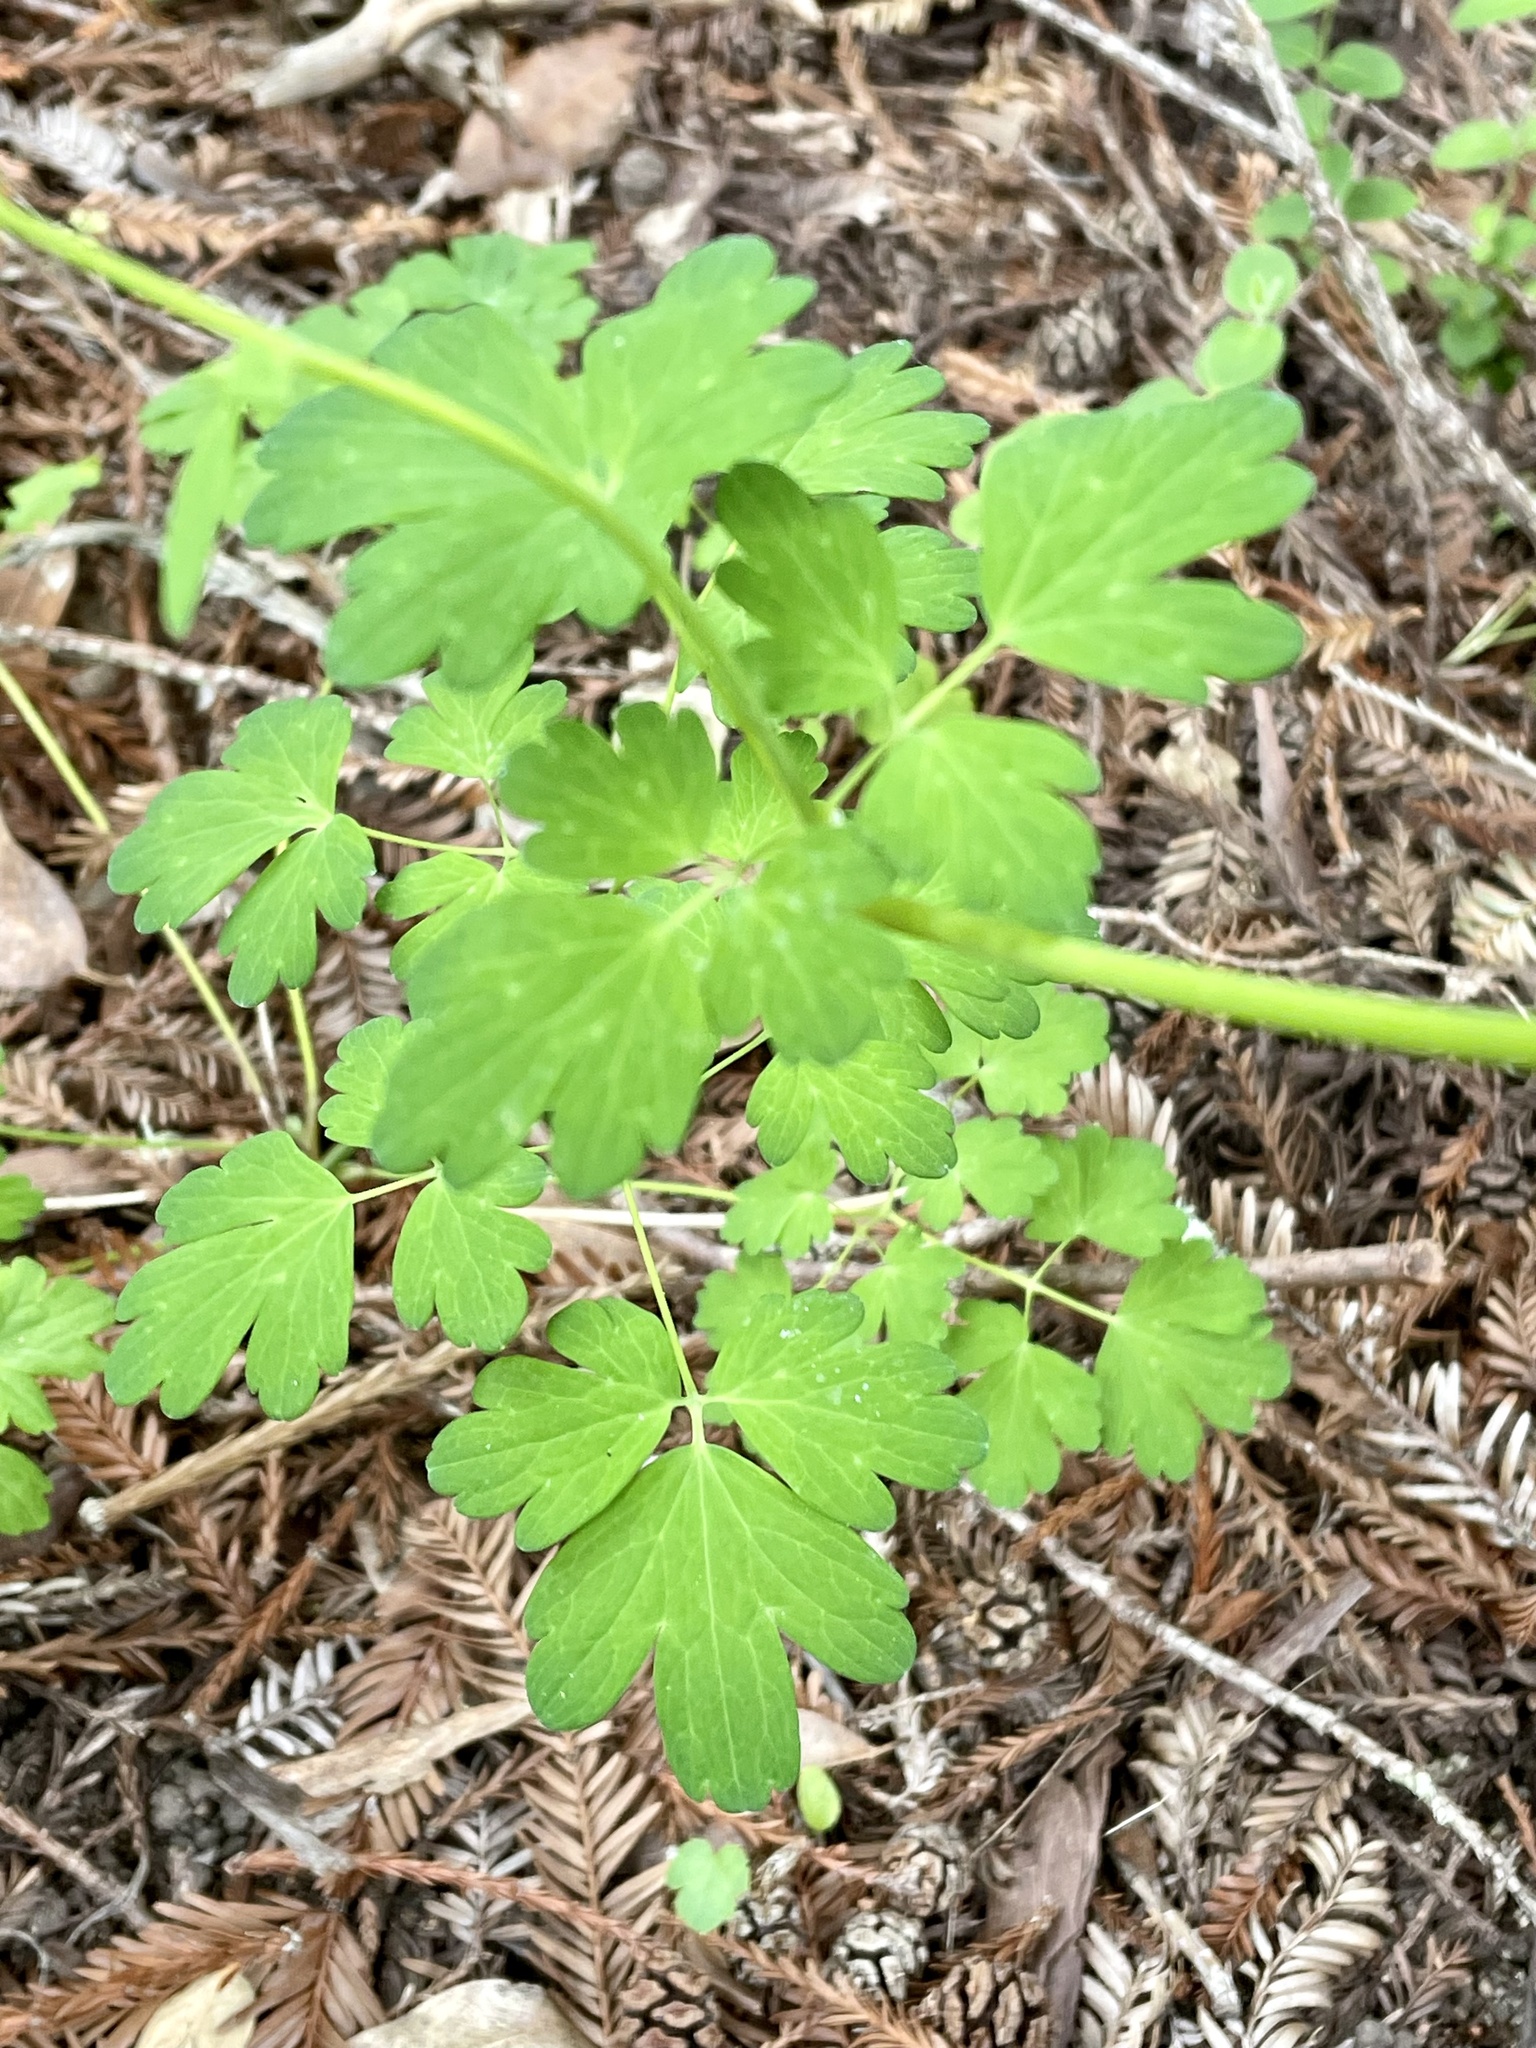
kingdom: Plantae
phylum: Tracheophyta
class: Magnoliopsida
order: Ranunculales
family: Ranunculaceae
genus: Aquilegia
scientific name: Aquilegia formosa
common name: Sitka columbine
